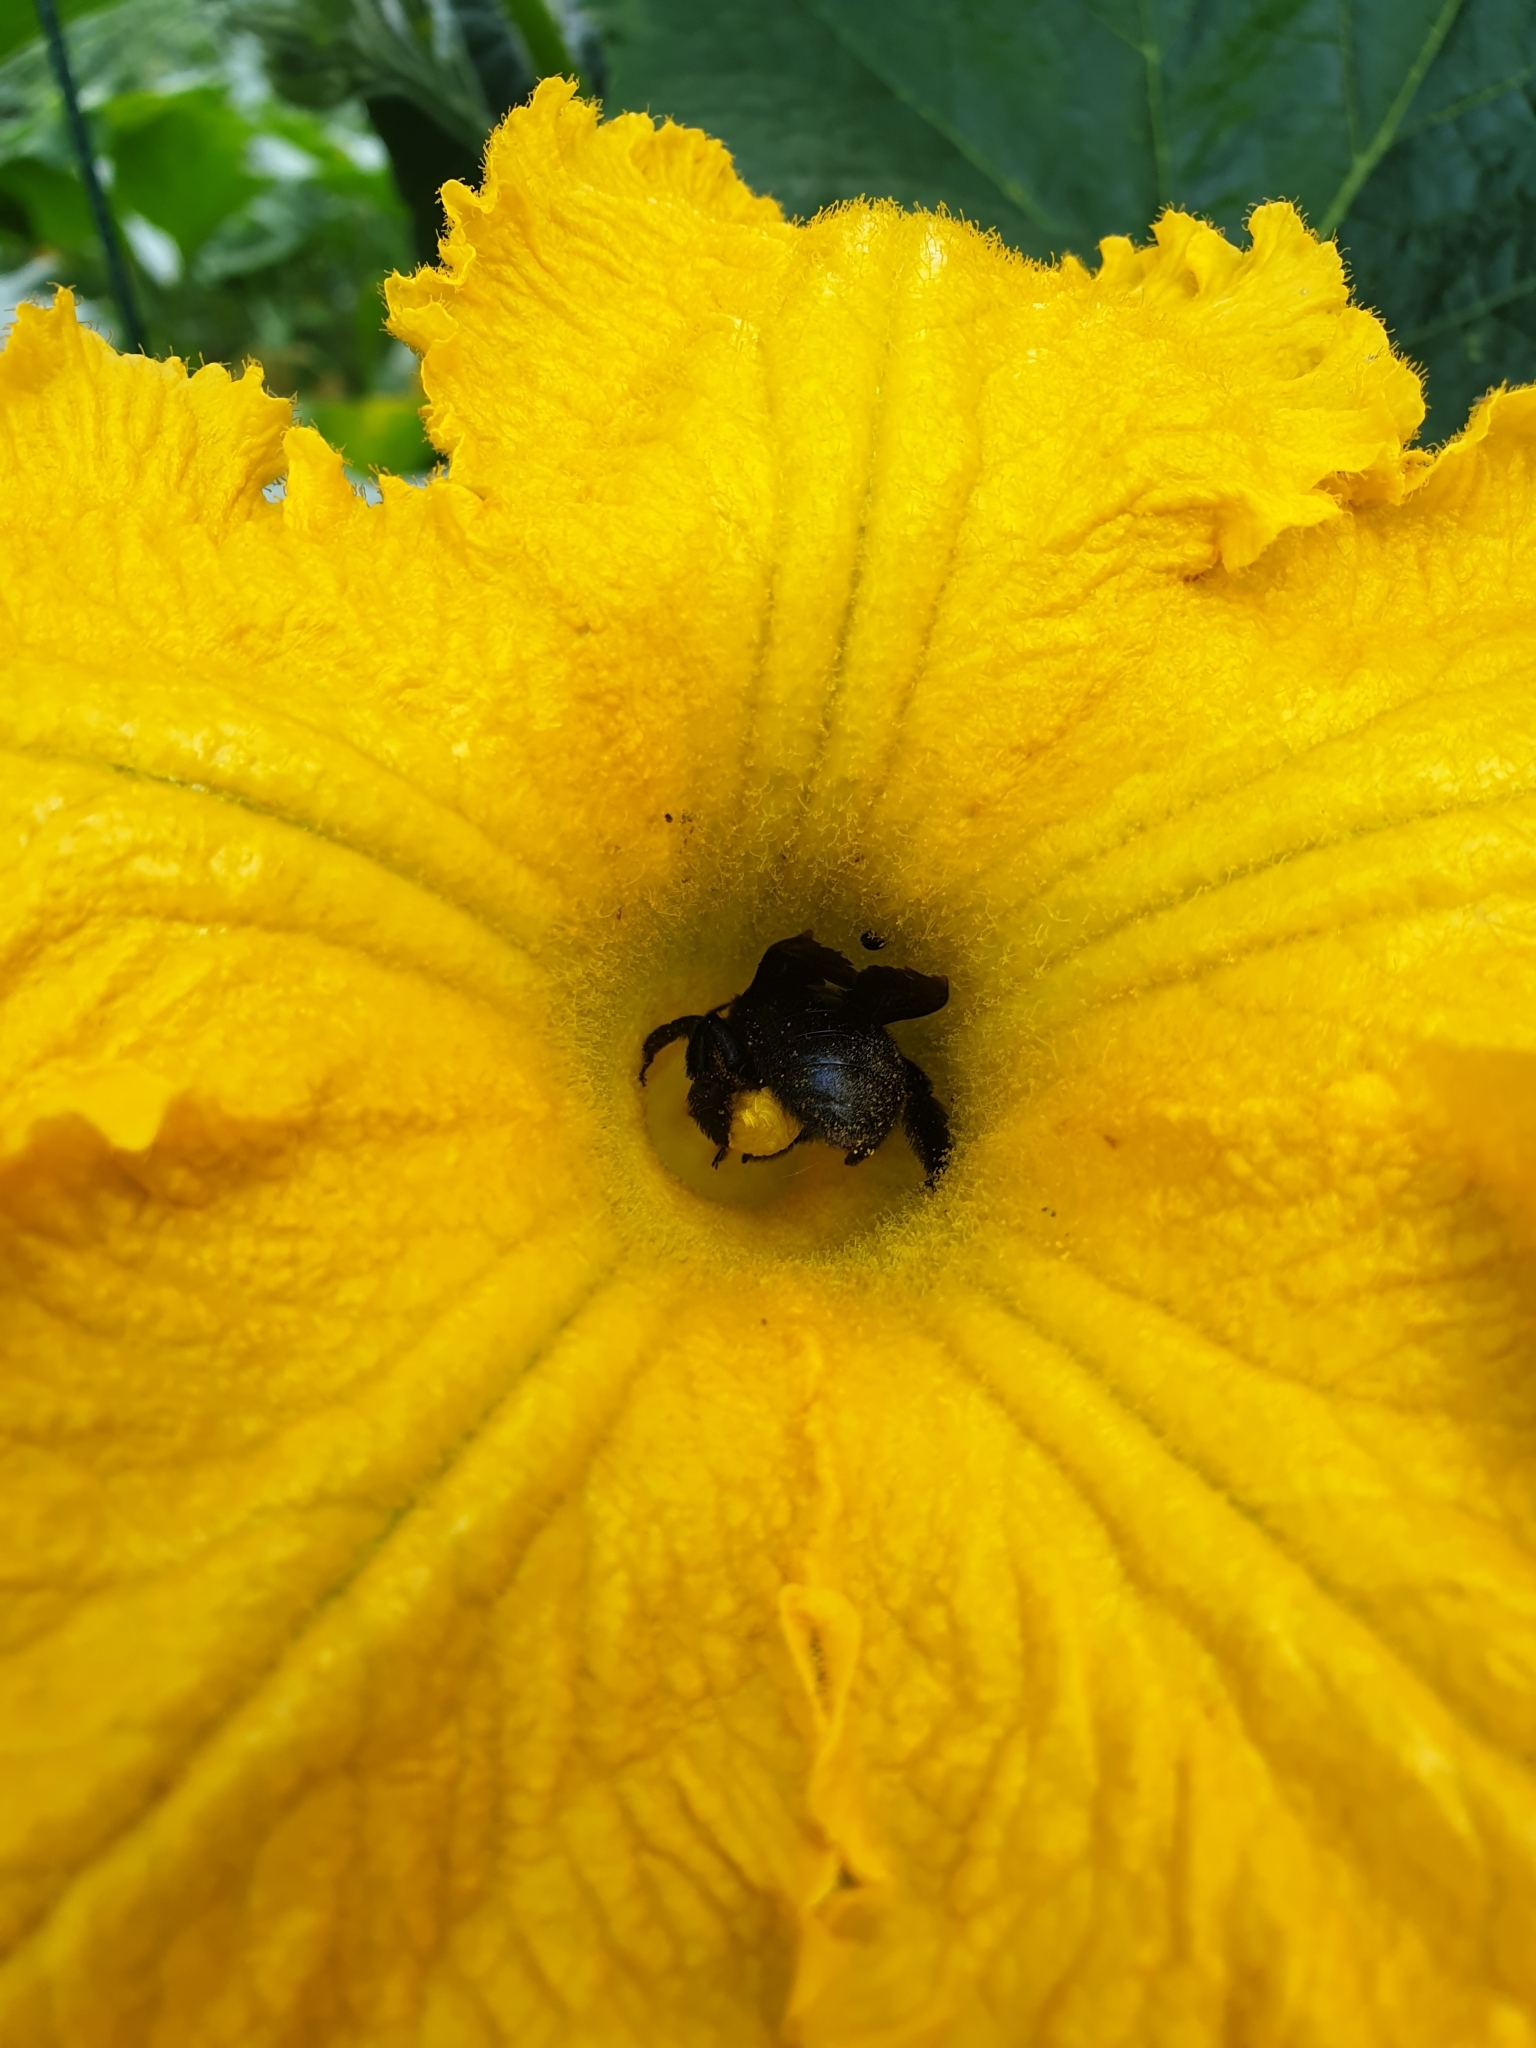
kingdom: Animalia
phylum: Arthropoda
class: Insecta
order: Hymenoptera
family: Apidae
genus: Xylocopa
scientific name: Xylocopa violacea
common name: Violet carpenter bee
